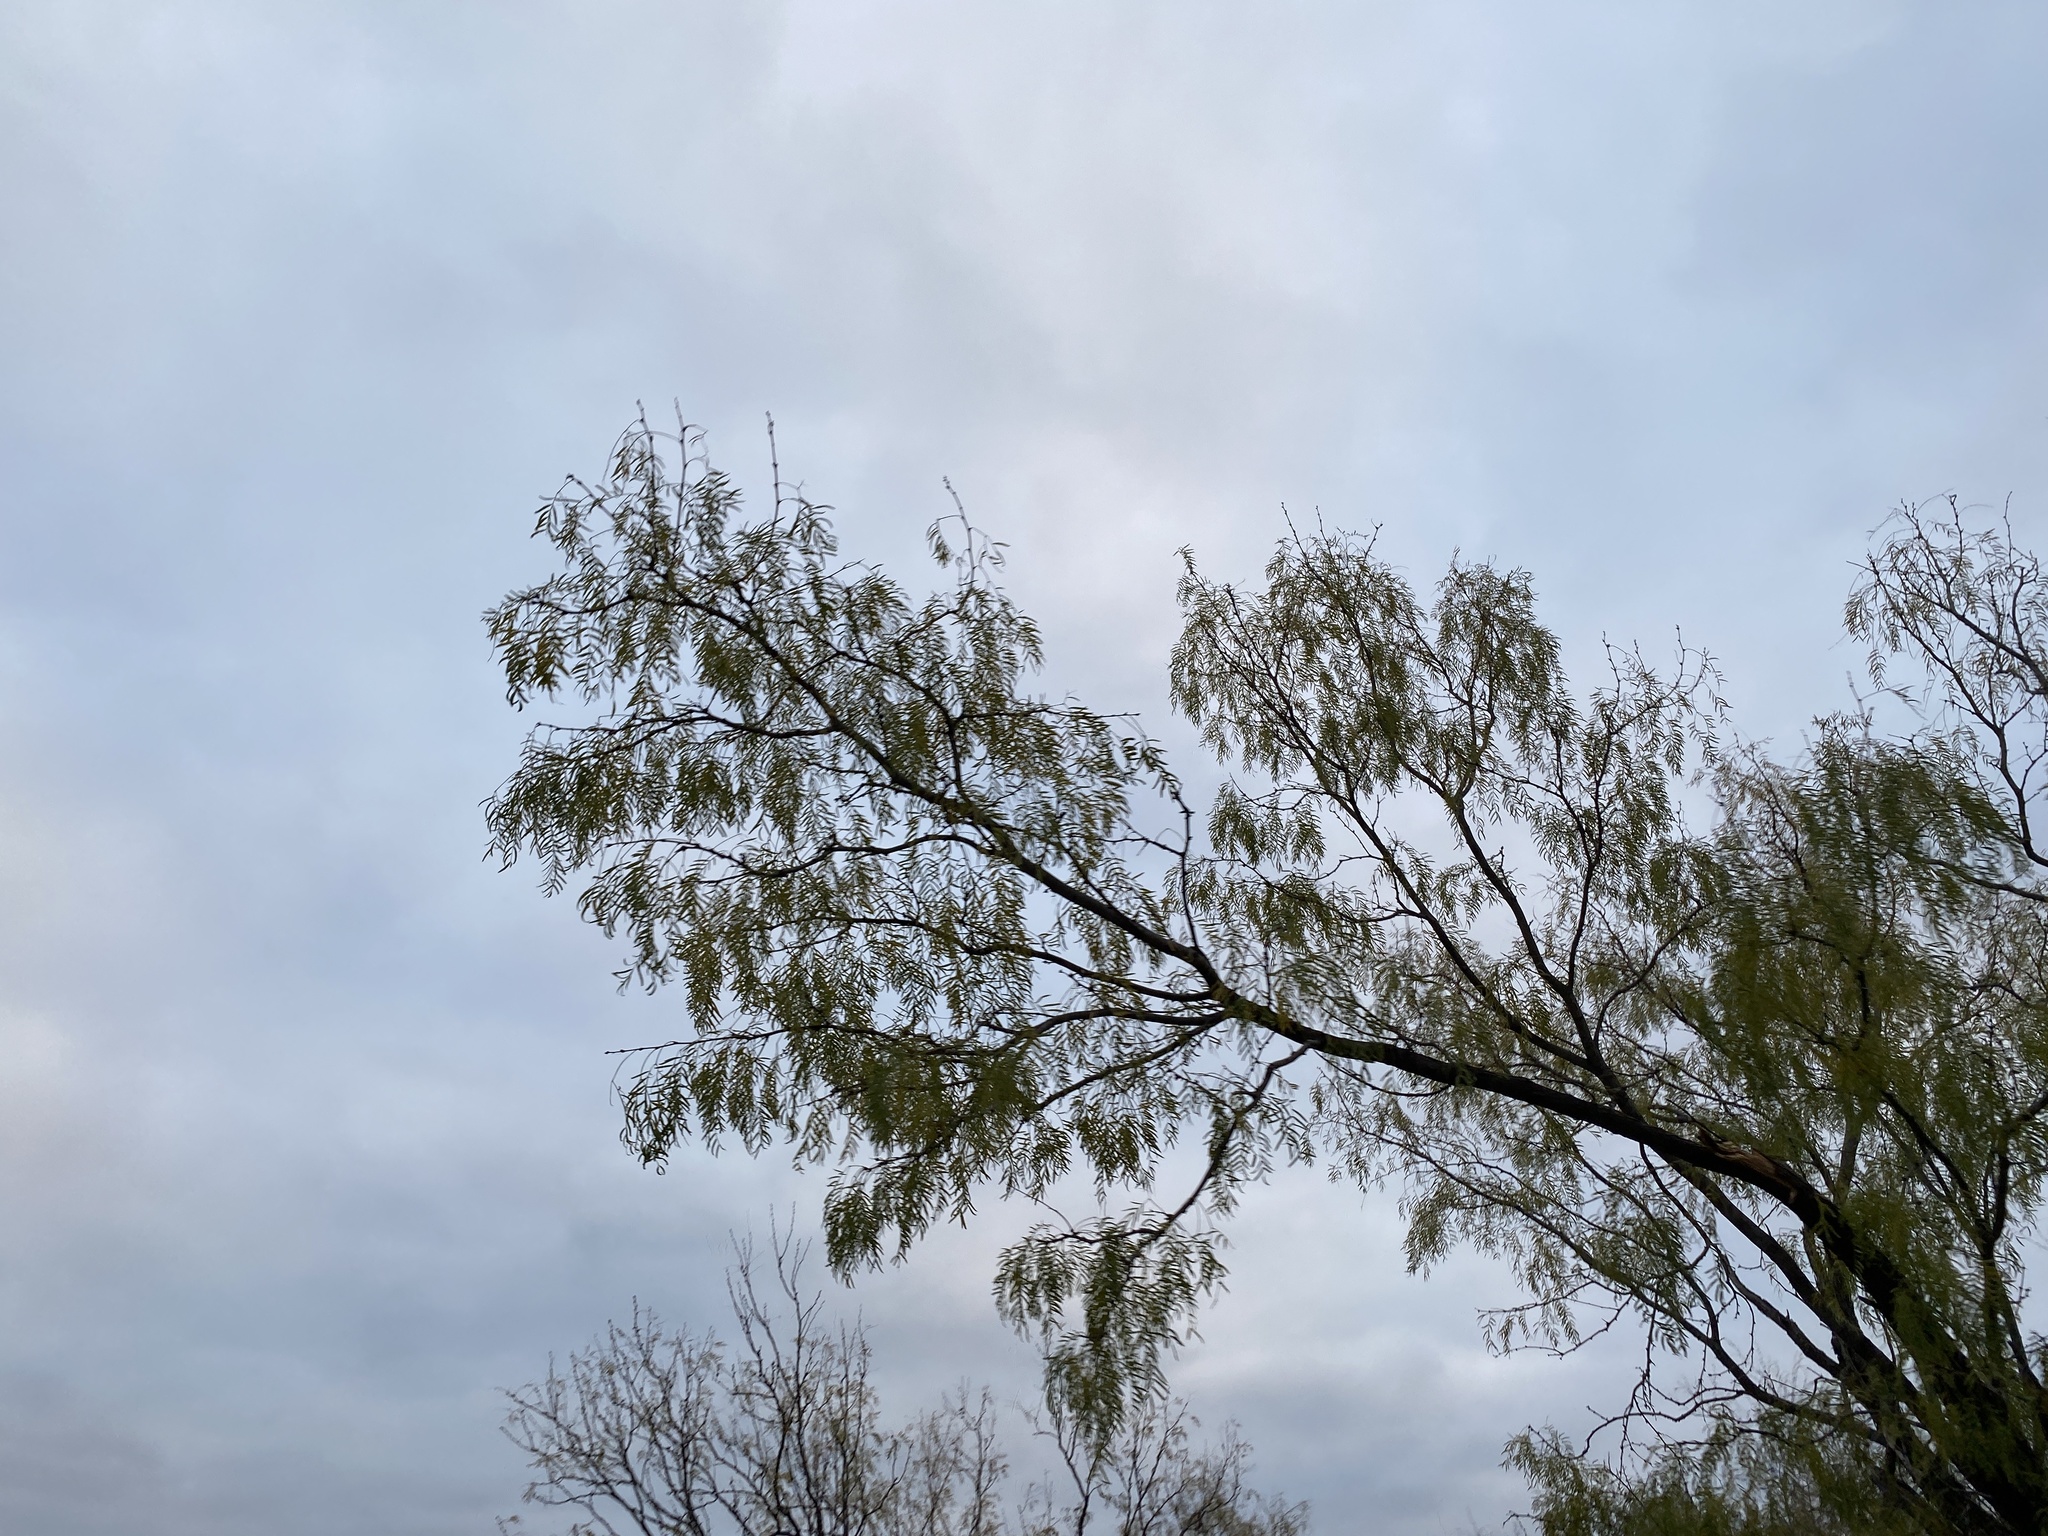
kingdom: Plantae
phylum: Tracheophyta
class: Magnoliopsida
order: Fabales
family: Fabaceae
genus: Prosopis
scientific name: Prosopis glandulosa
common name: Honey mesquite
